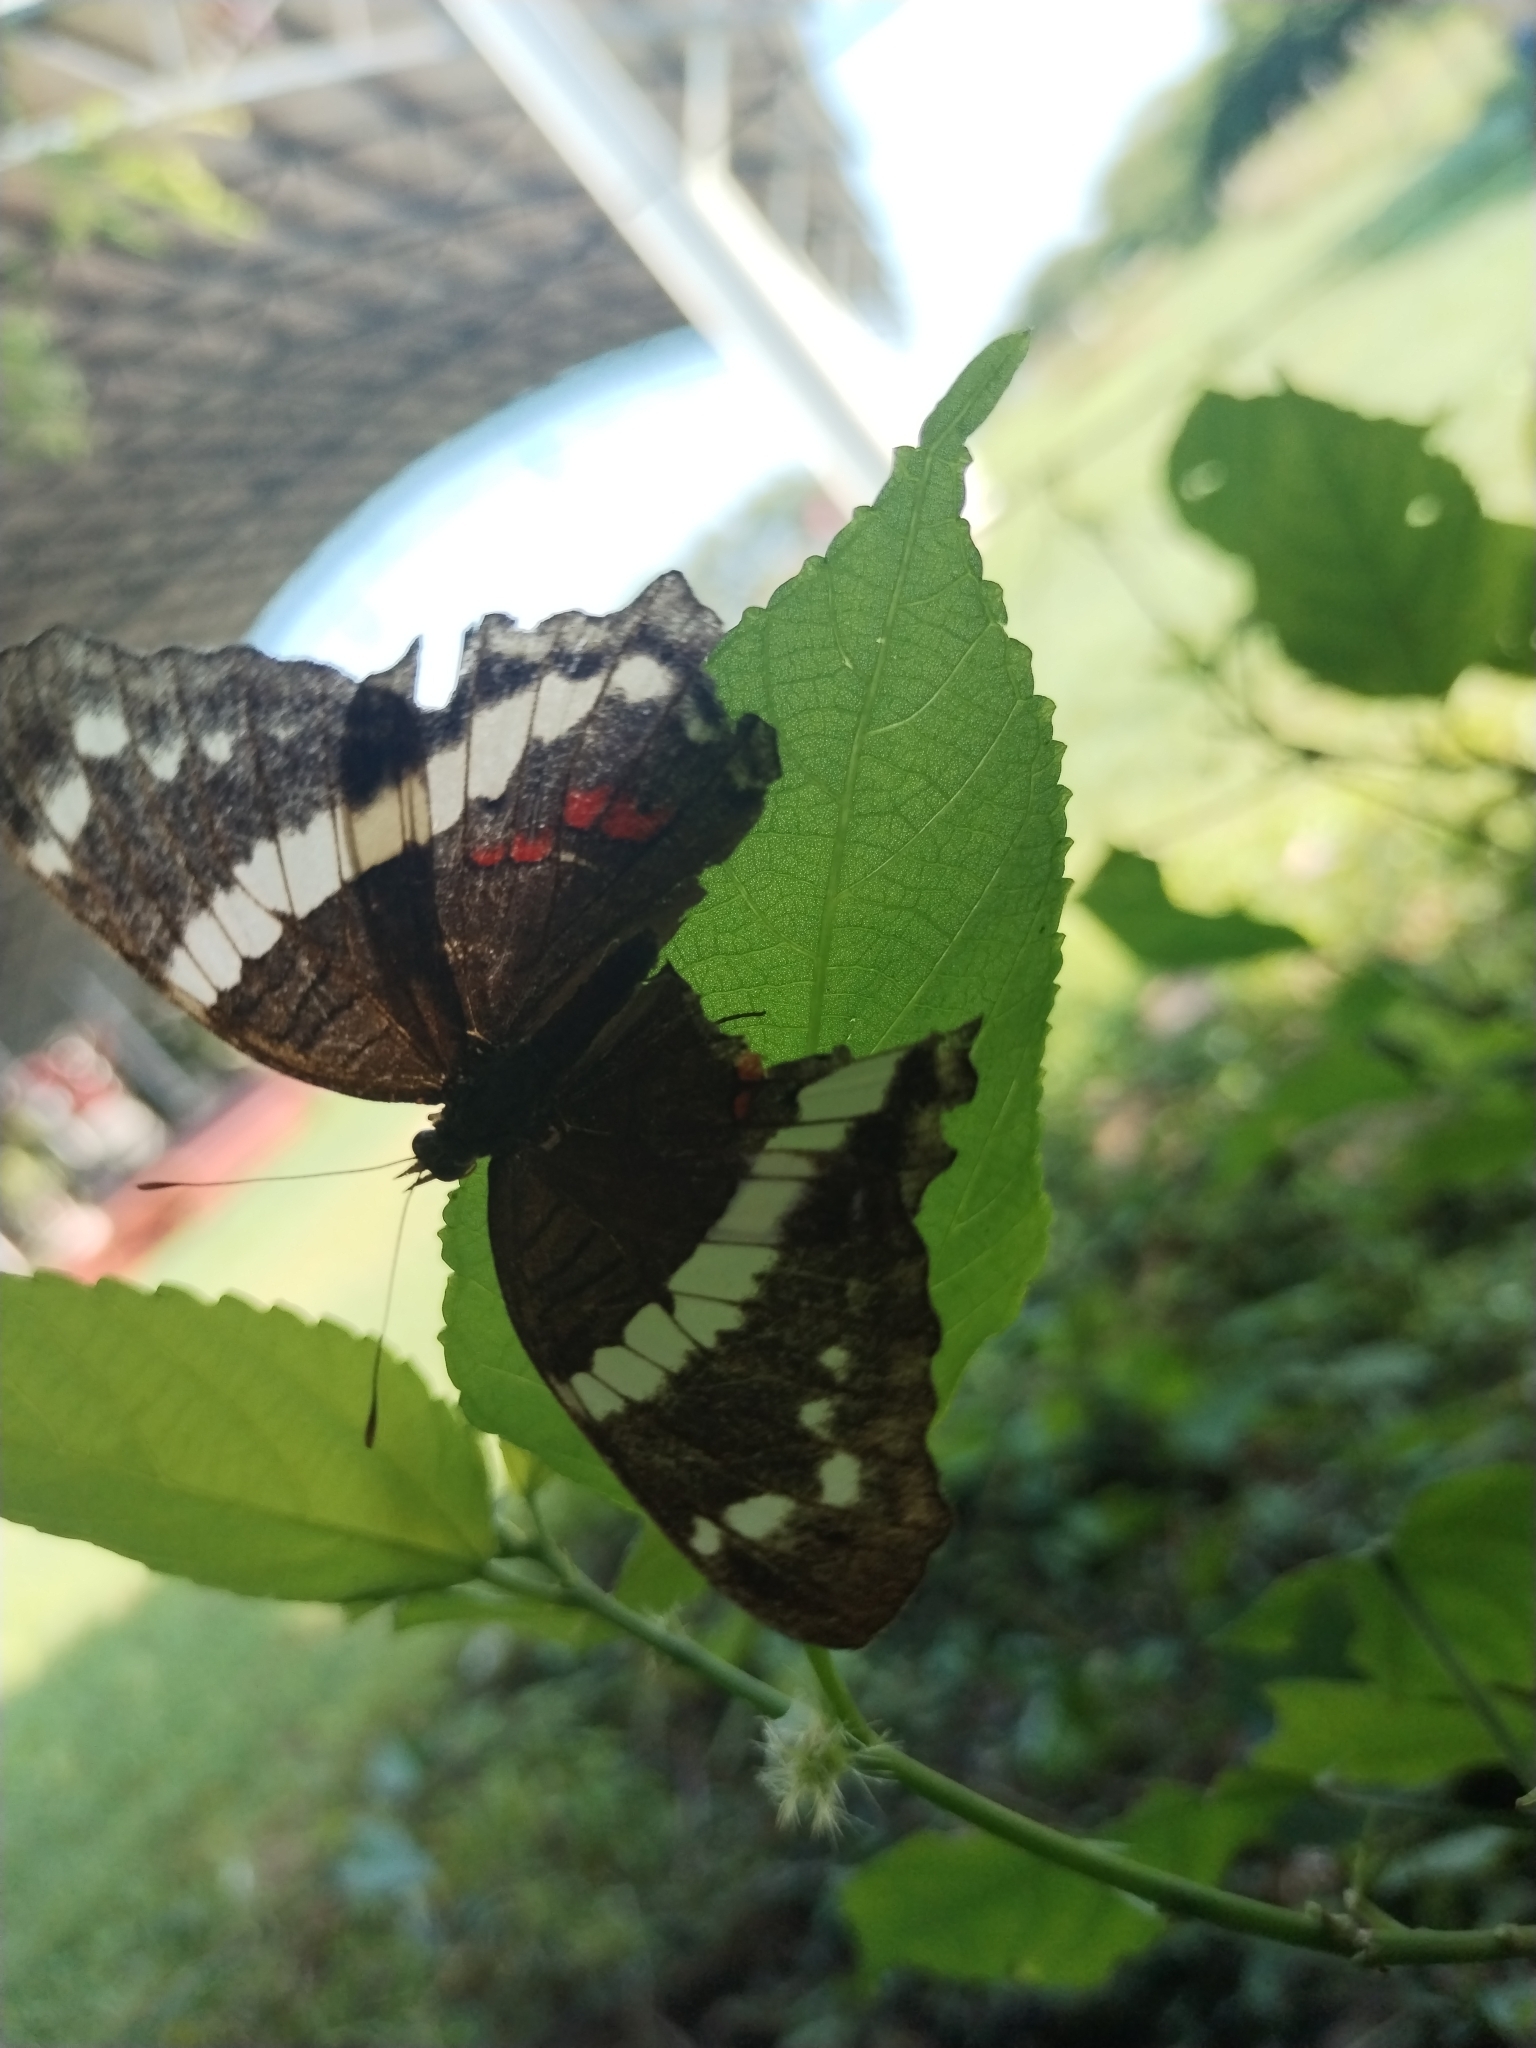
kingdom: Animalia
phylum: Arthropoda
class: Insecta
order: Lepidoptera
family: Nymphalidae
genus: Anartia
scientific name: Anartia fatima
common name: Banded peacock
